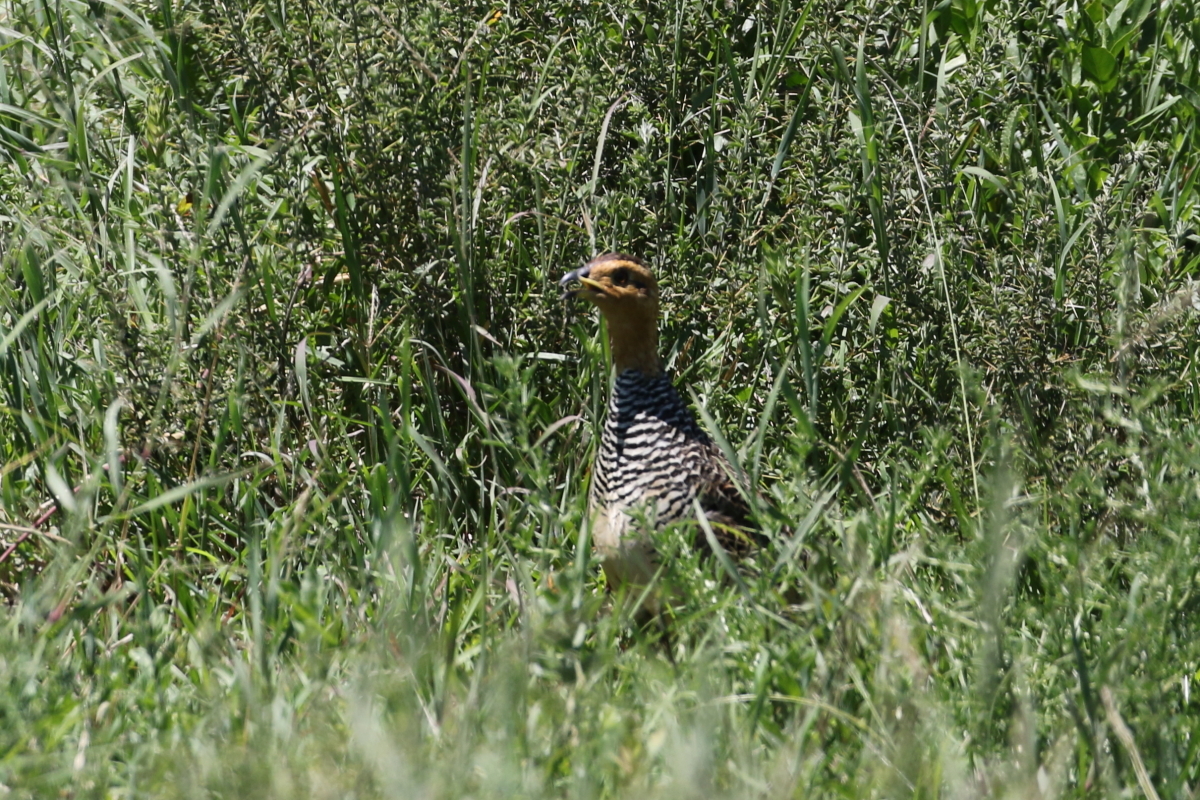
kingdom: Animalia
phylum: Chordata
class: Aves
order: Galliformes
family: Phasianidae
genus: Campocolinus
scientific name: Campocolinus coqui
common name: Coqui francolin
